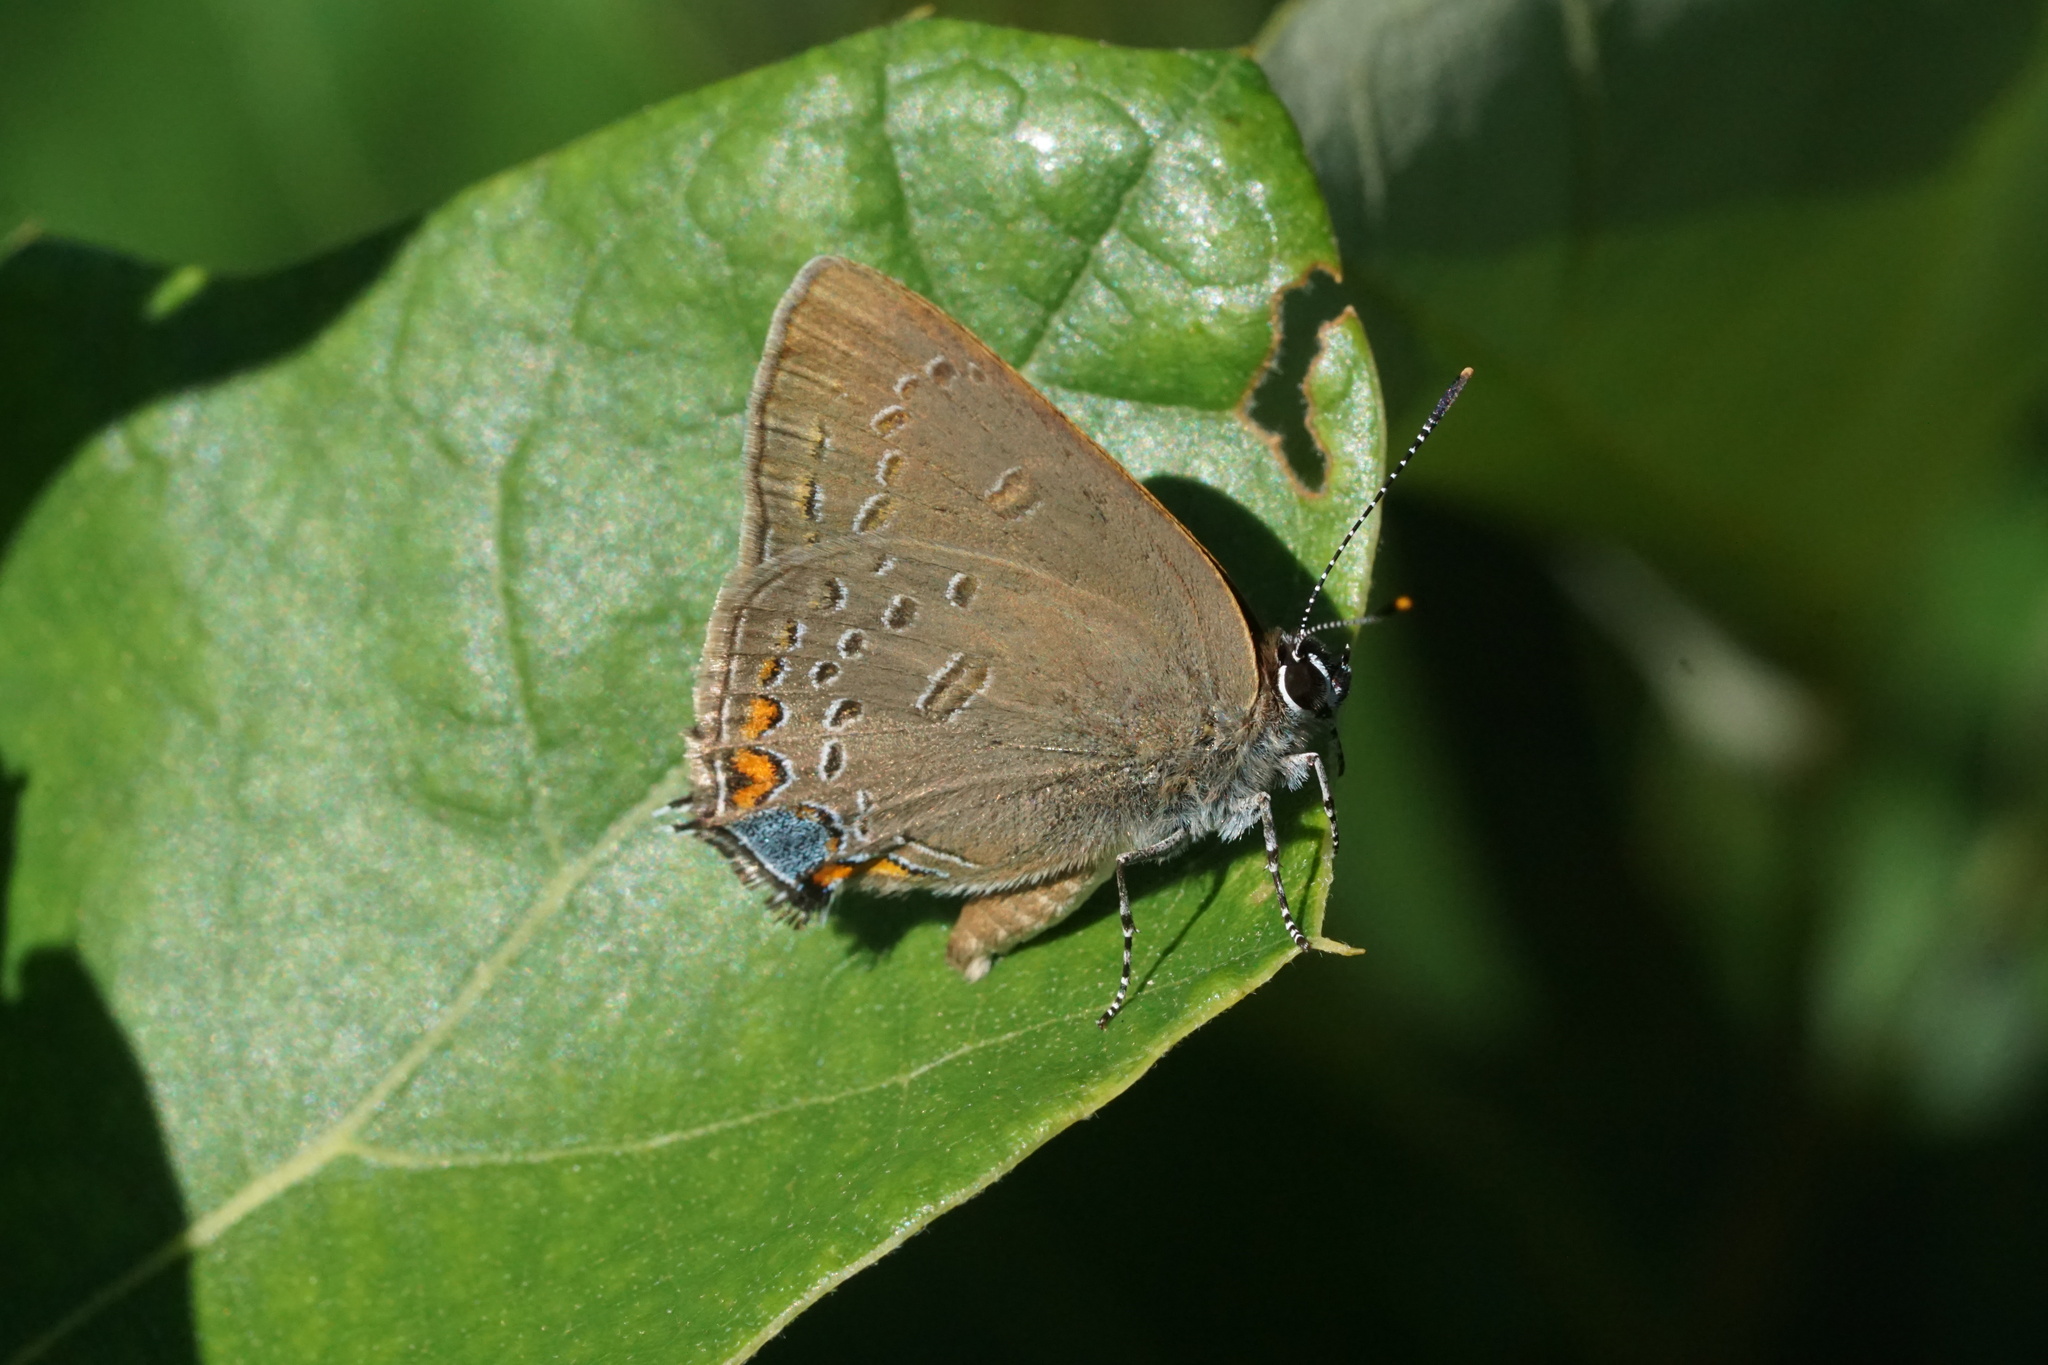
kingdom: Animalia
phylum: Arthropoda
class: Insecta
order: Lepidoptera
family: Lycaenidae
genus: Satyrium
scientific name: Satyrium edwardsii
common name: Edwards' hairstreak
